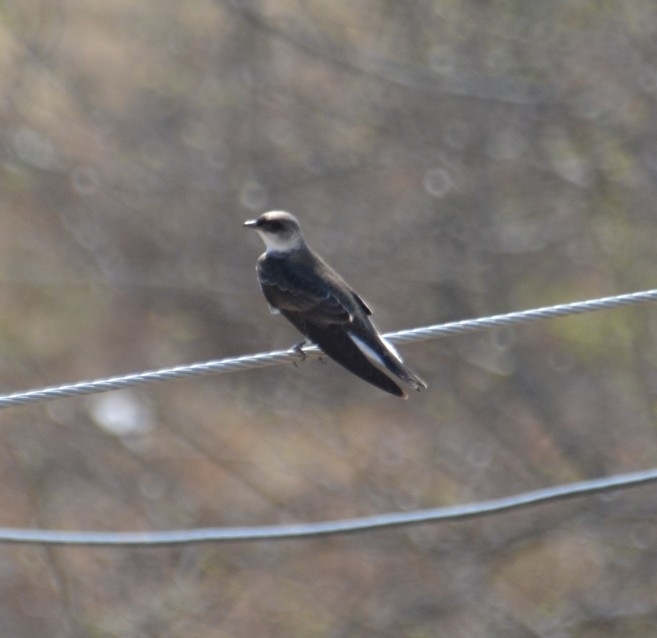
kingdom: Animalia
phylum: Chordata
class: Aves
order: Passeriformes
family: Hirundinidae
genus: Progne
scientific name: Progne tapera
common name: Brown-chested martin
